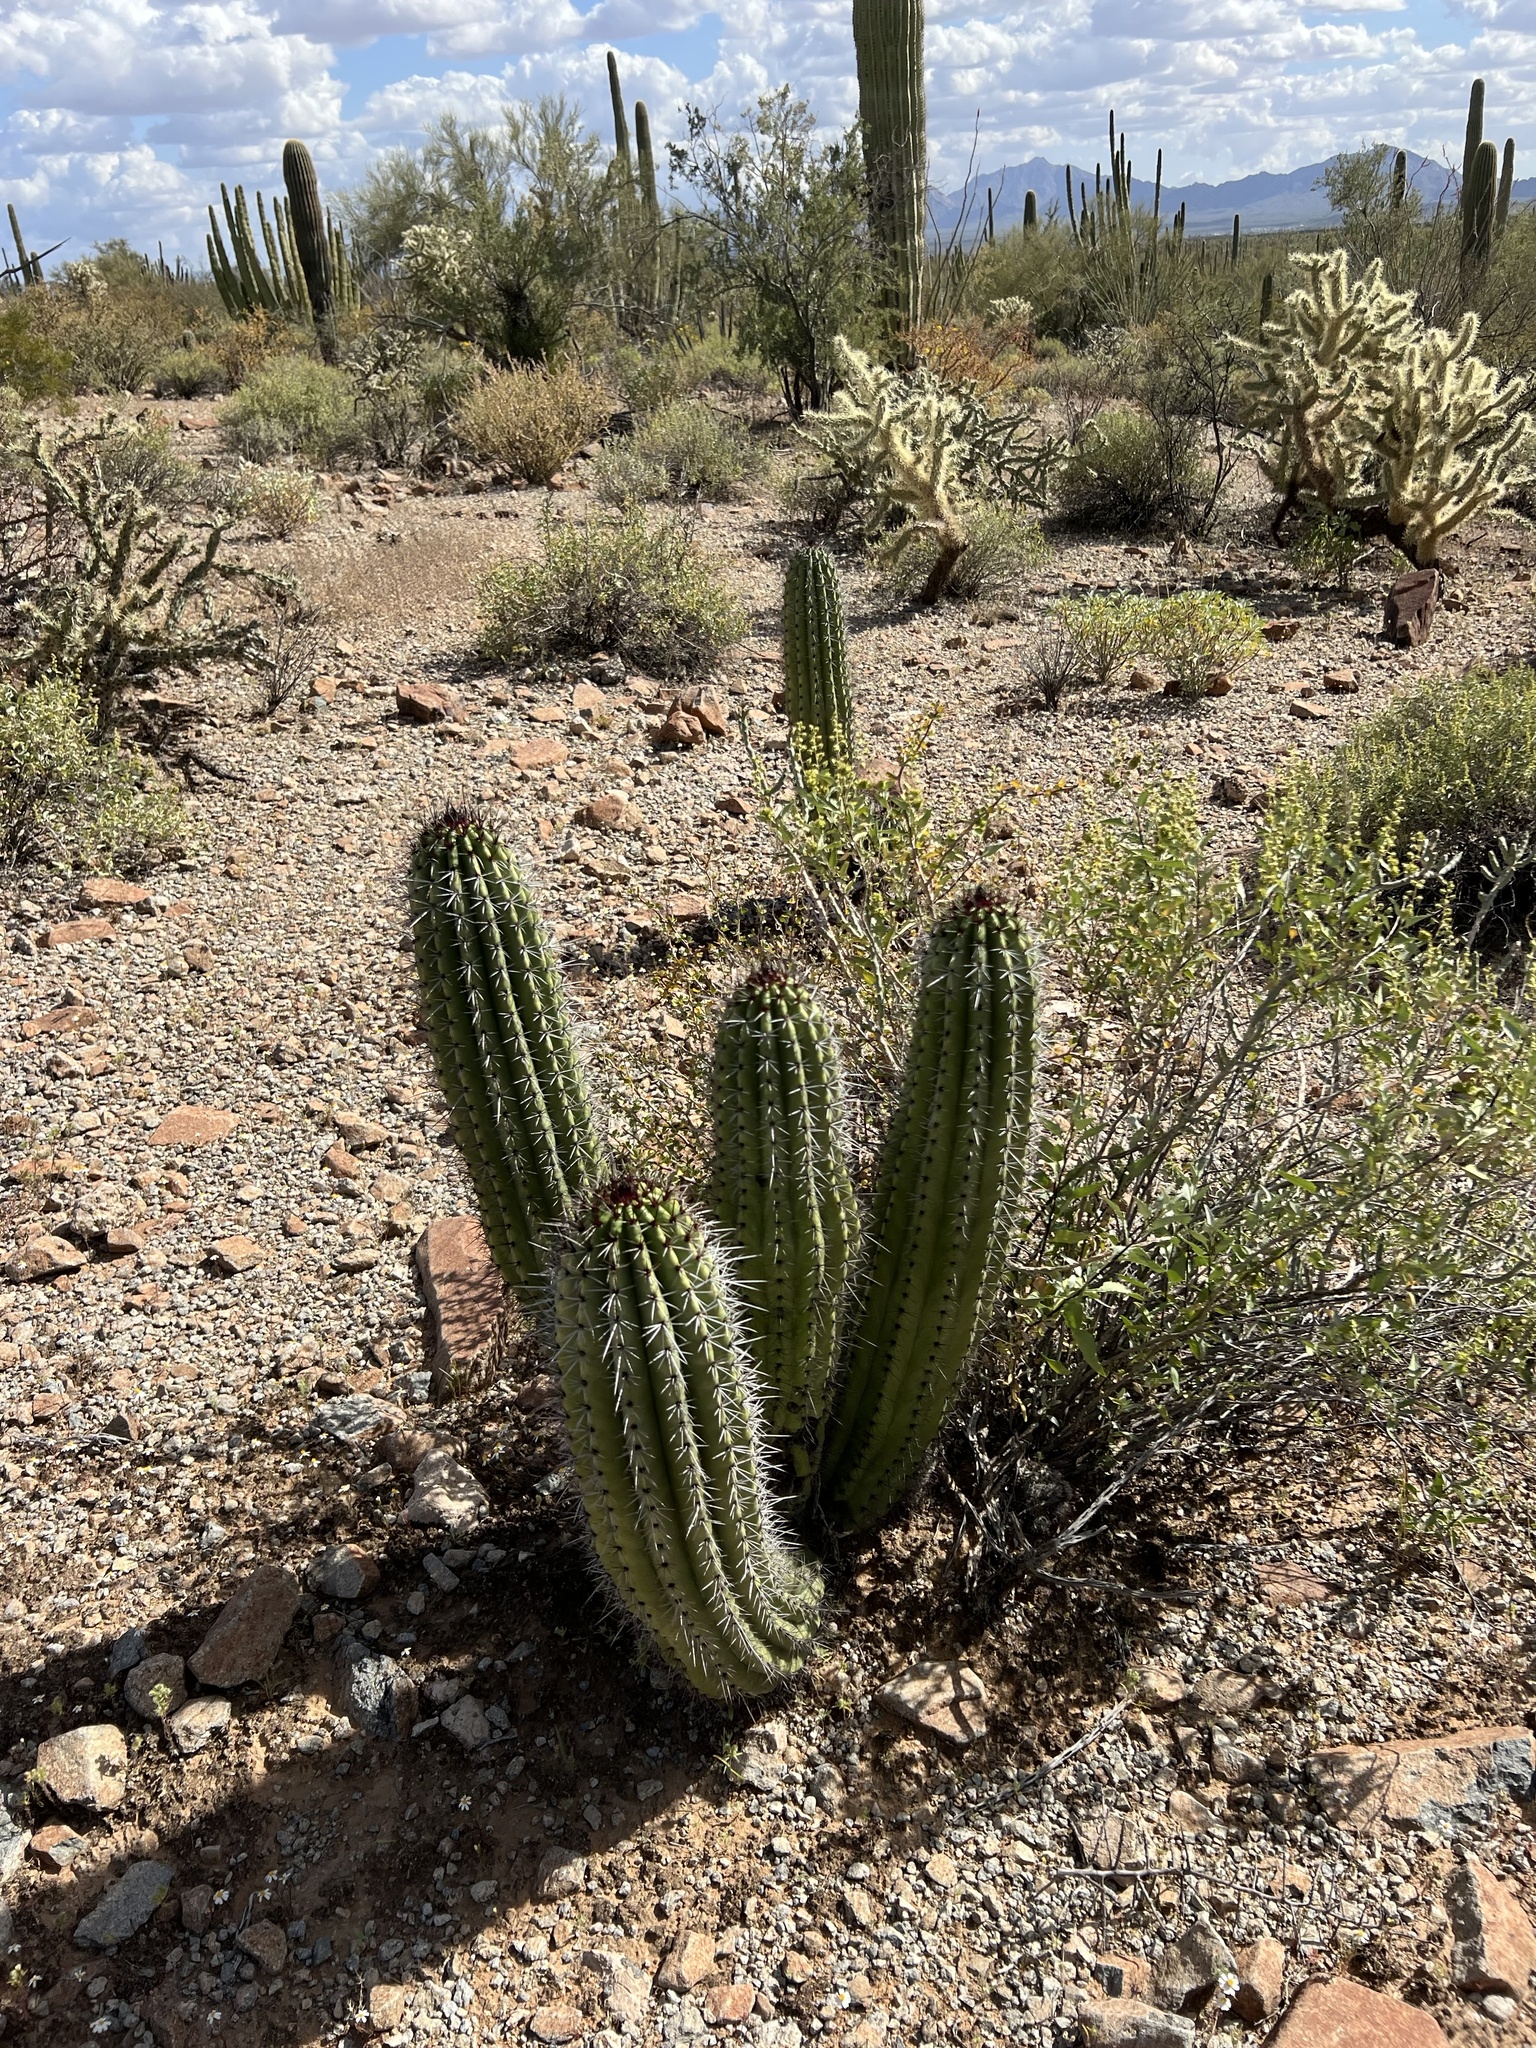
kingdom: Plantae
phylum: Tracheophyta
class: Magnoliopsida
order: Caryophyllales
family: Cactaceae
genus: Stenocereus
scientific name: Stenocereus thurberi
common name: Organ pipe cactus
